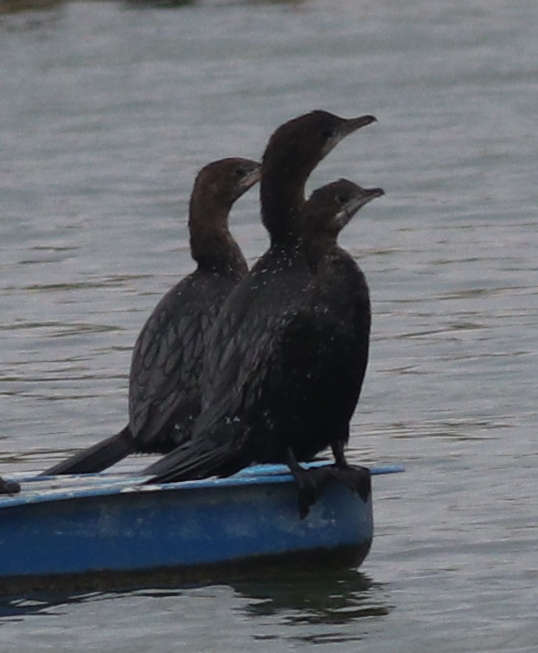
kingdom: Animalia
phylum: Chordata
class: Aves
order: Suliformes
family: Phalacrocoracidae
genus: Microcarbo
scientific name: Microcarbo pygmaeus
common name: Pygmy cormorant
